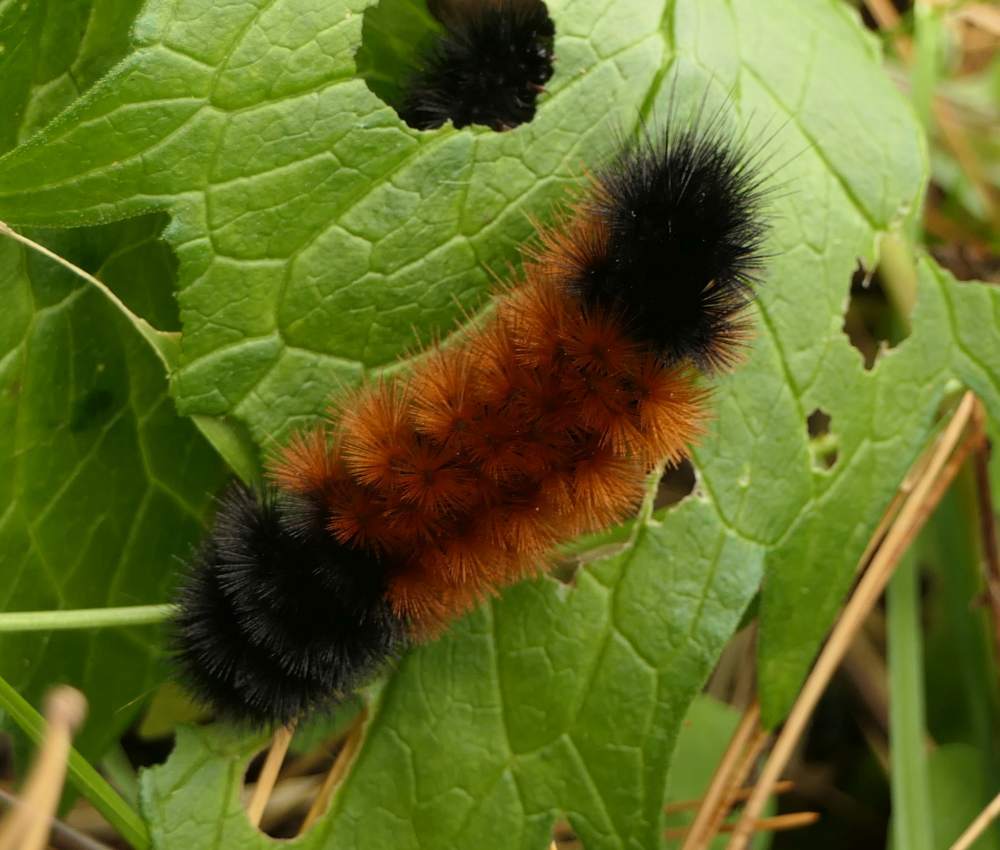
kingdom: Animalia
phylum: Arthropoda
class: Insecta
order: Lepidoptera
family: Erebidae
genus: Pyrrharctia
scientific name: Pyrrharctia isabella
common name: Isabella tiger moth
